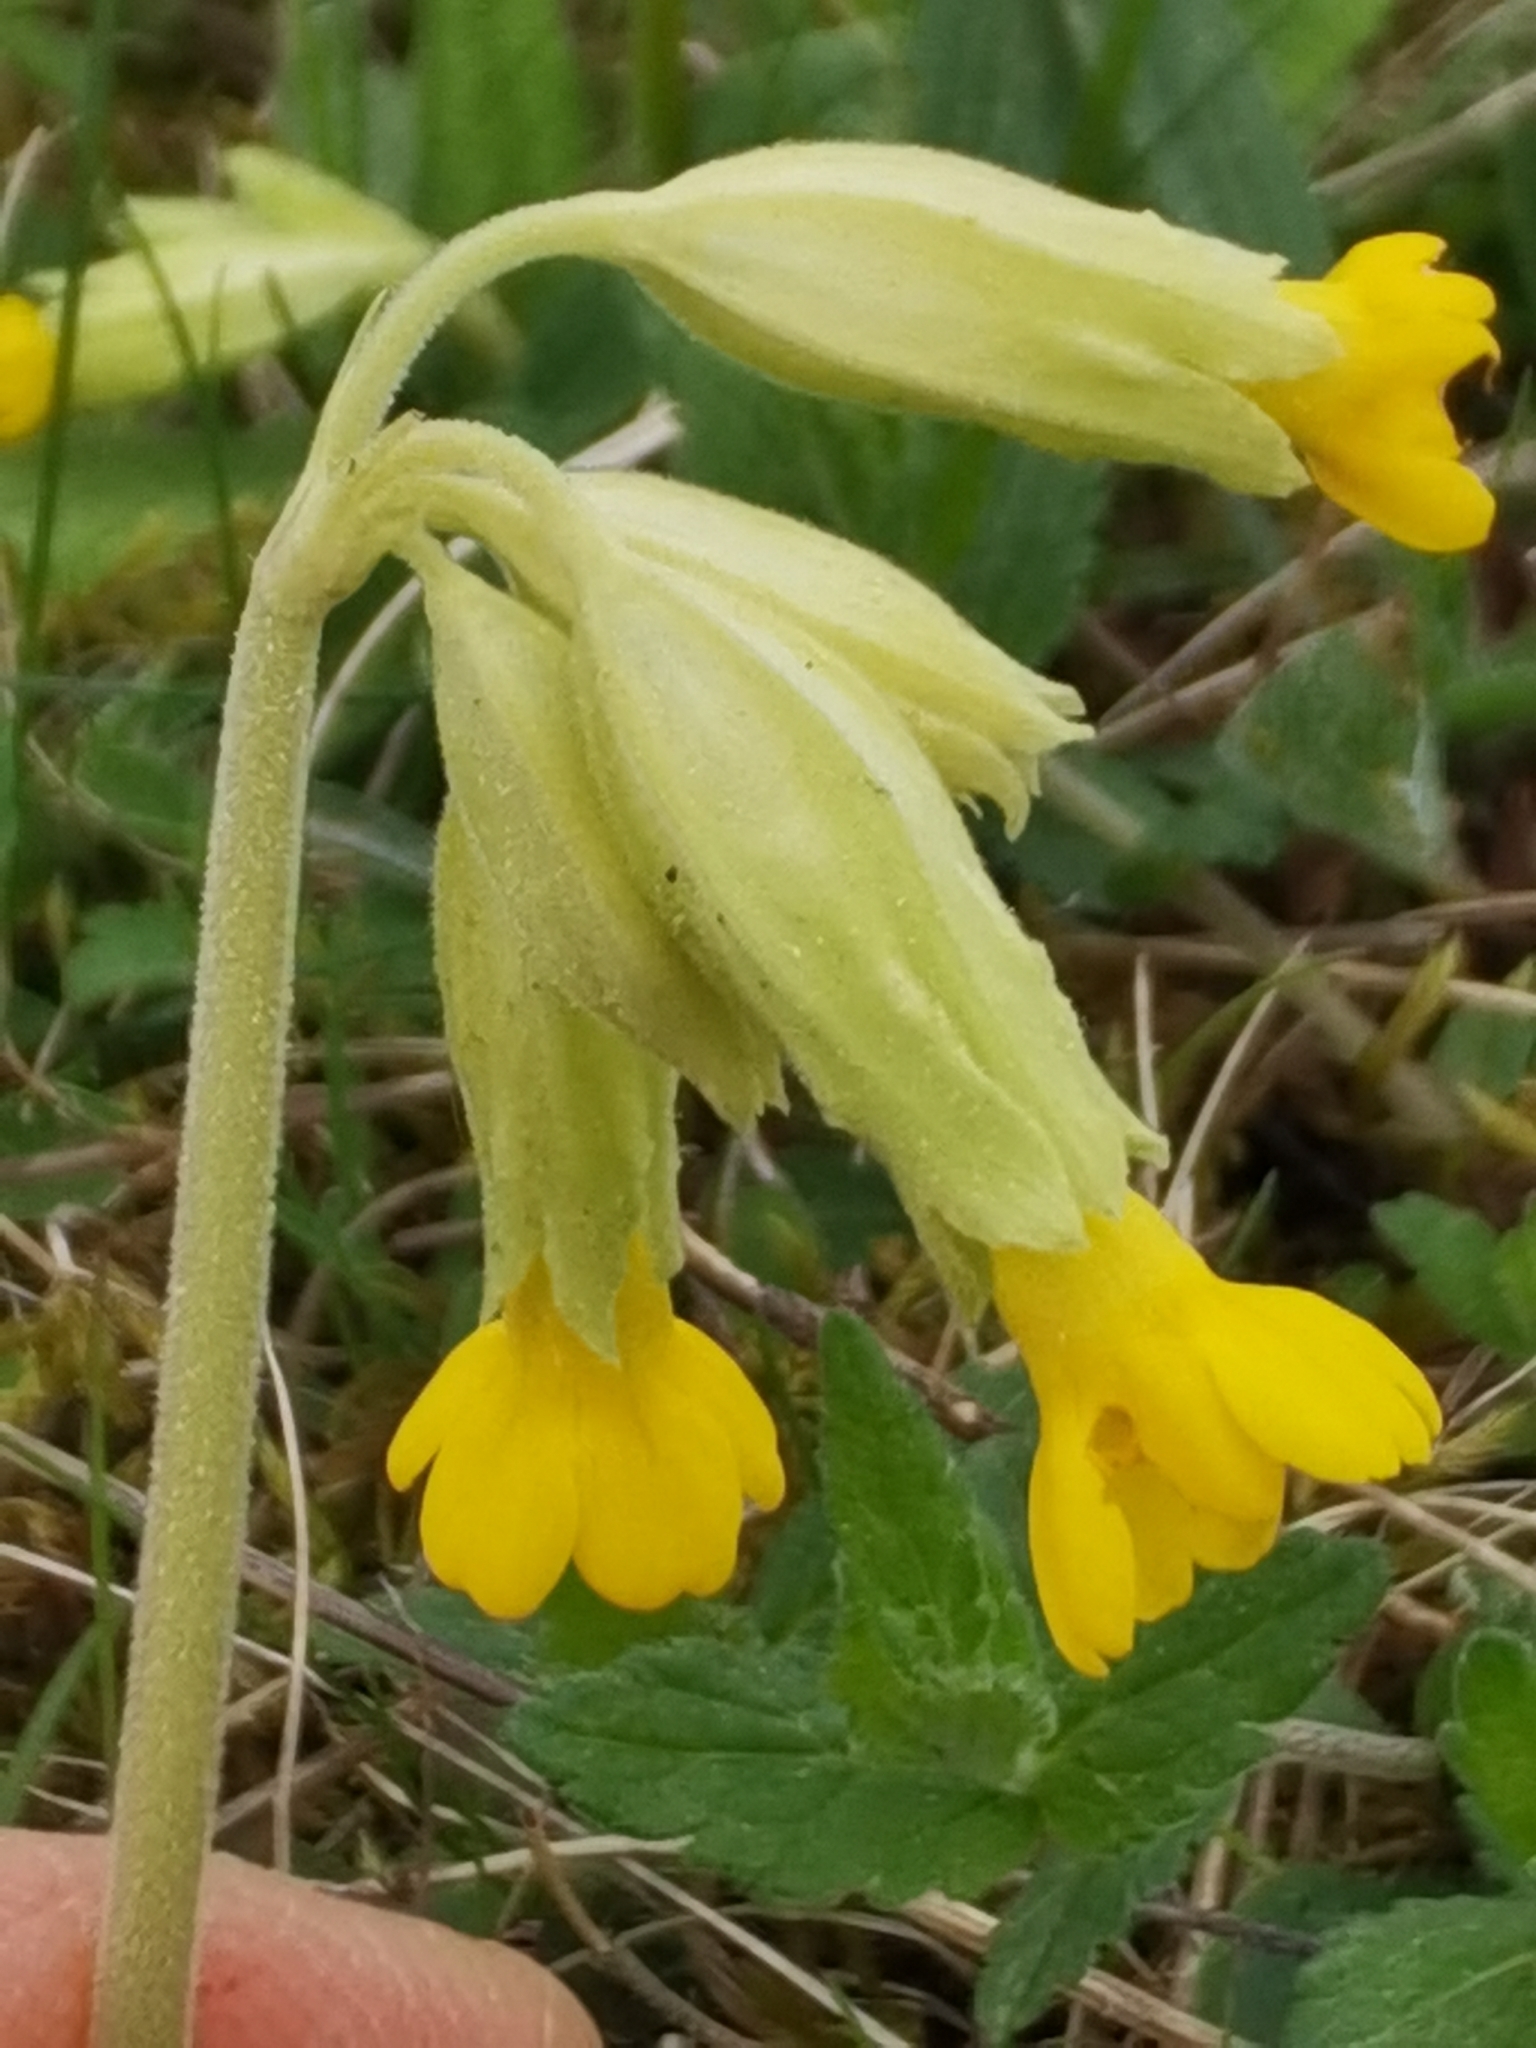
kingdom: Plantae
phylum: Tracheophyta
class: Magnoliopsida
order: Ericales
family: Primulaceae
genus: Primula
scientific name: Primula veris
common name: Cowslip
